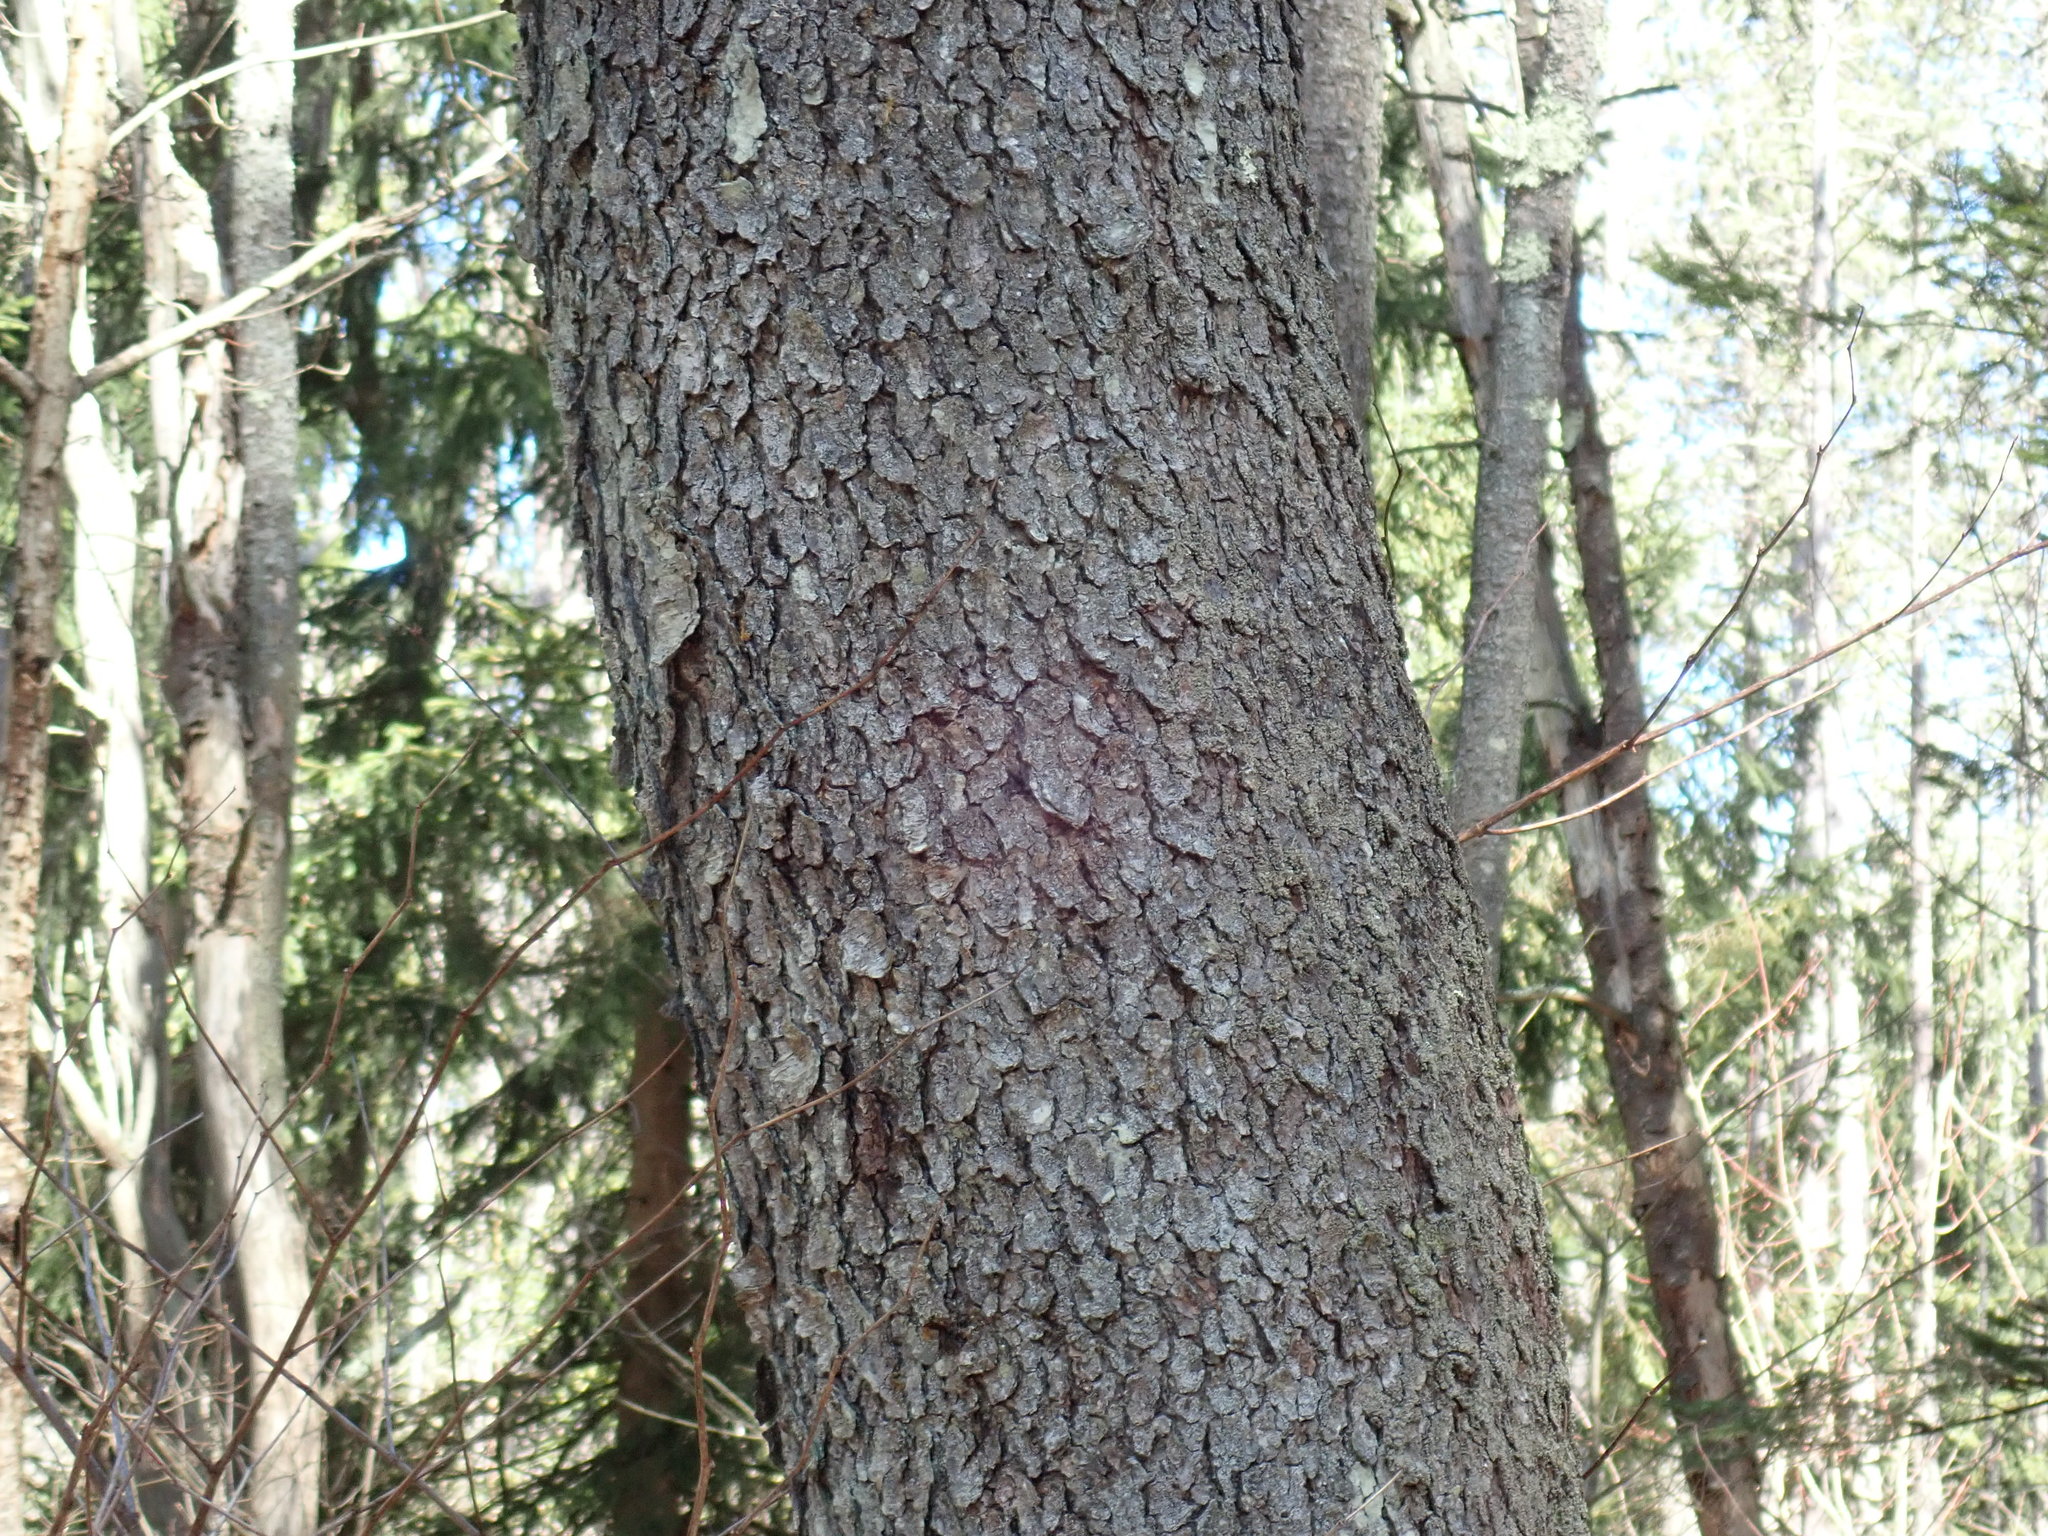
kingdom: Plantae
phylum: Tracheophyta
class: Magnoliopsida
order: Rosales
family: Rosaceae
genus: Prunus
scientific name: Prunus serotina
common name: Black cherry
